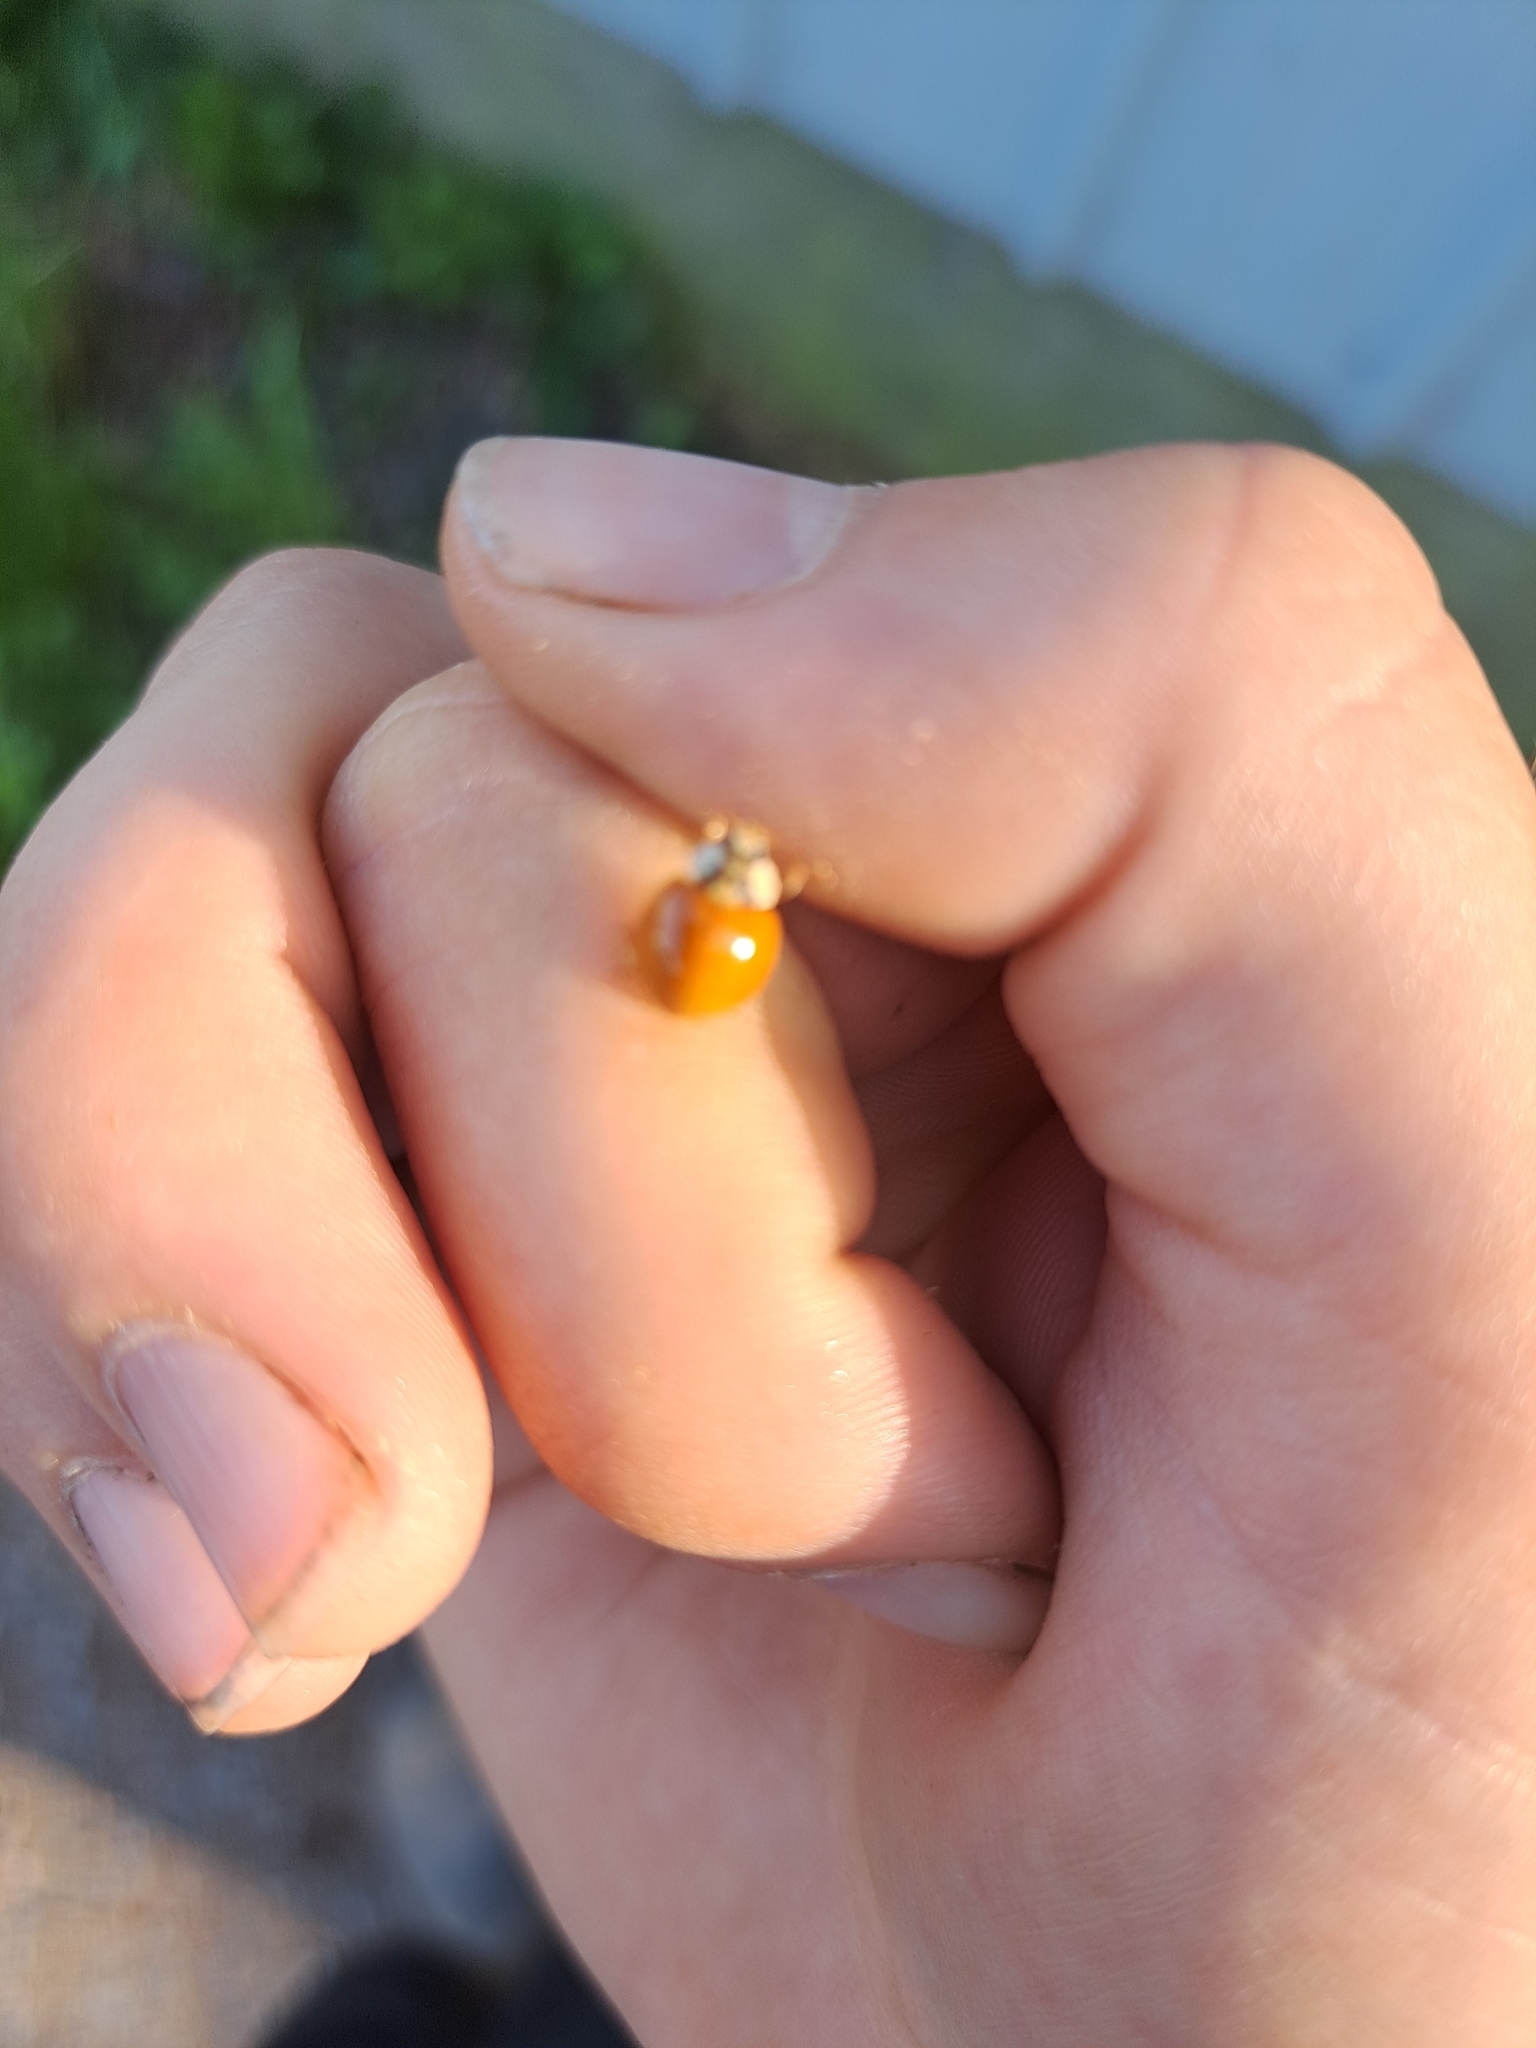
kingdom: Animalia
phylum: Arthropoda
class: Insecta
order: Coleoptera
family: Coccinellidae
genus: Harmonia
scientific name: Harmonia axyridis
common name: Harlequin ladybird
